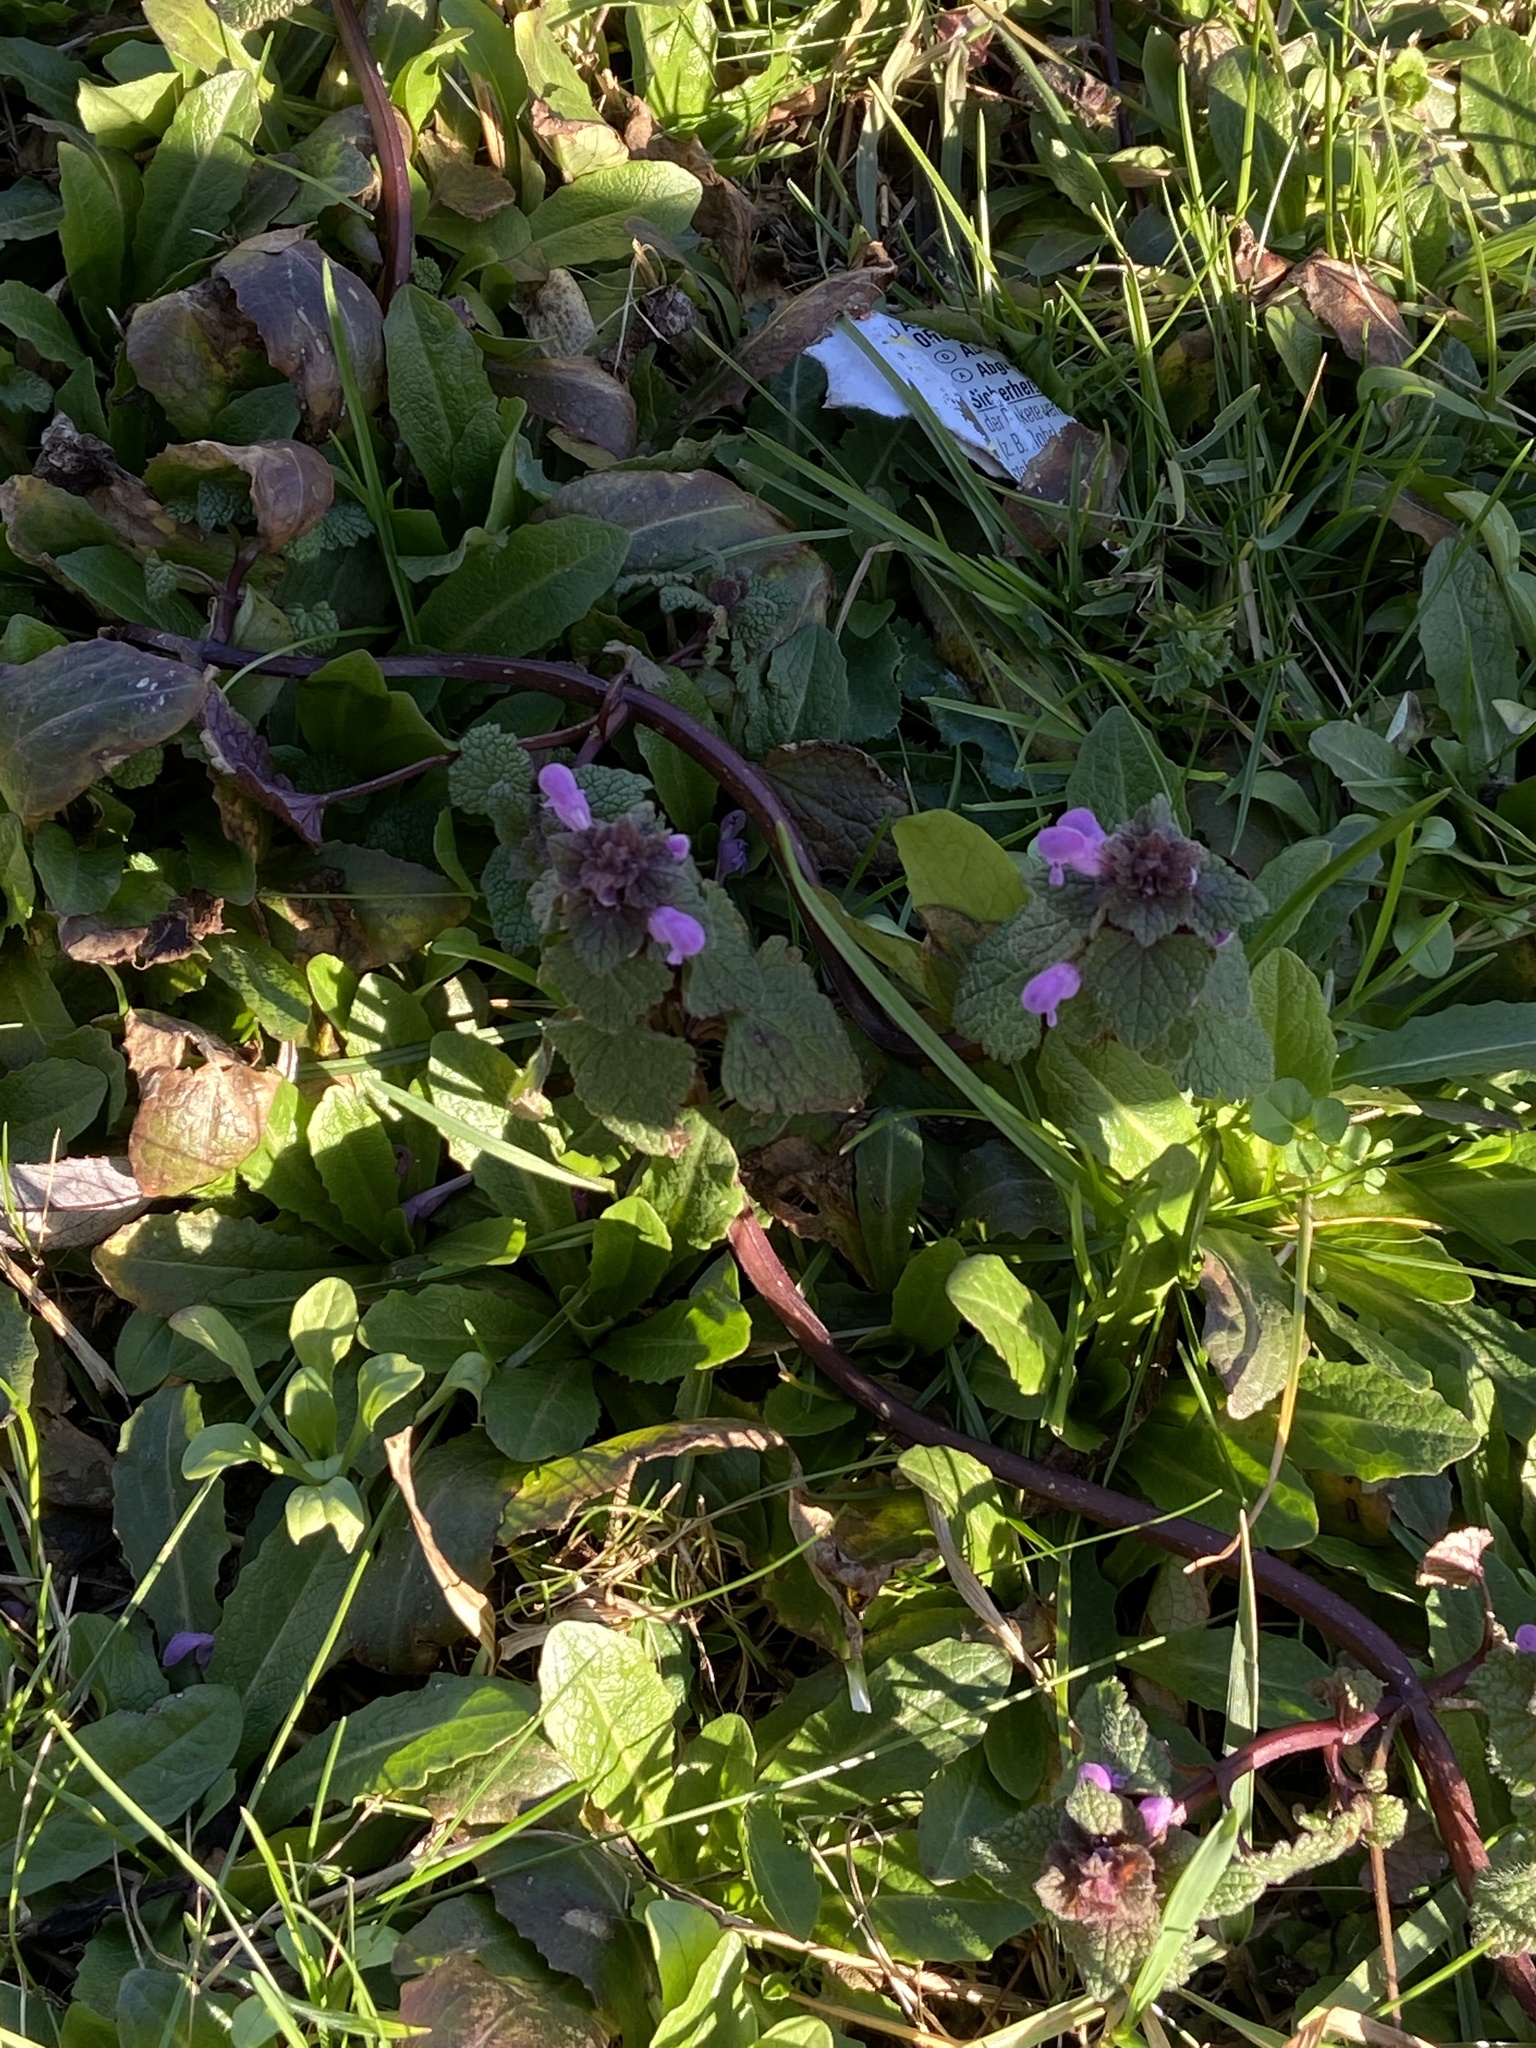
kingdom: Plantae
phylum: Tracheophyta
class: Magnoliopsida
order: Lamiales
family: Lamiaceae
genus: Lamium
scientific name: Lamium purpureum
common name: Red dead-nettle
